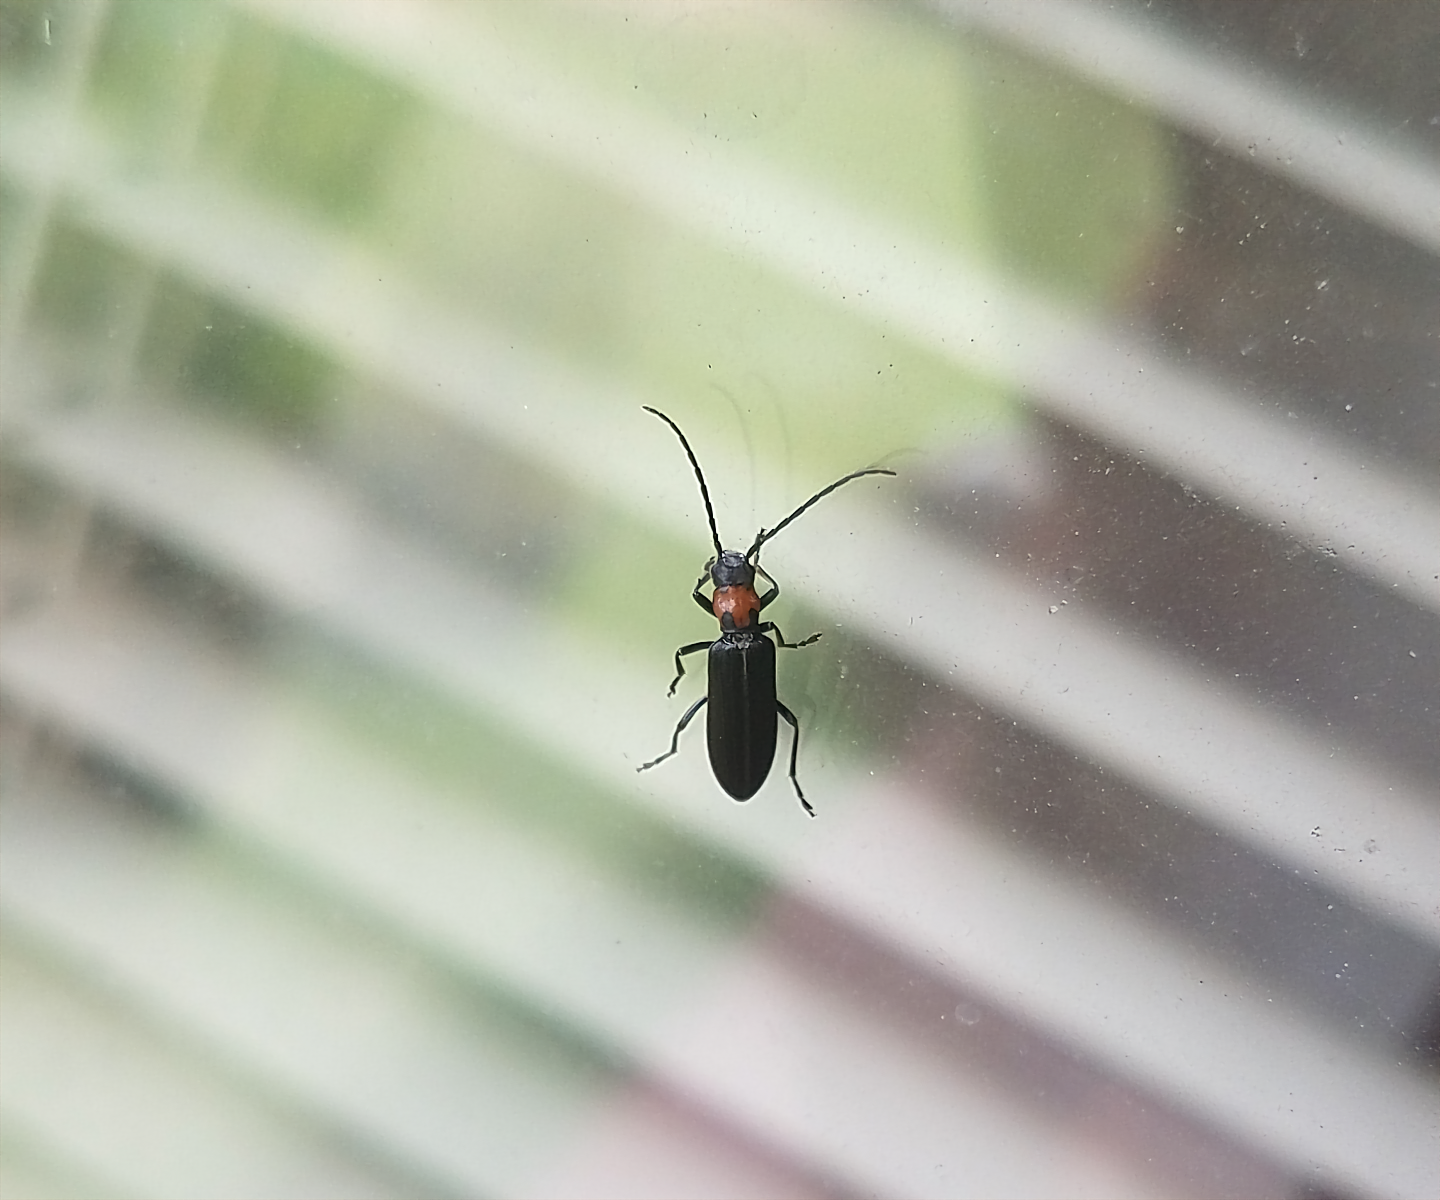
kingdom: Animalia
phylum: Arthropoda
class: Insecta
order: Coleoptera
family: Oedemeridae
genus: Oxycopis
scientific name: Oxycopis notoxoides
